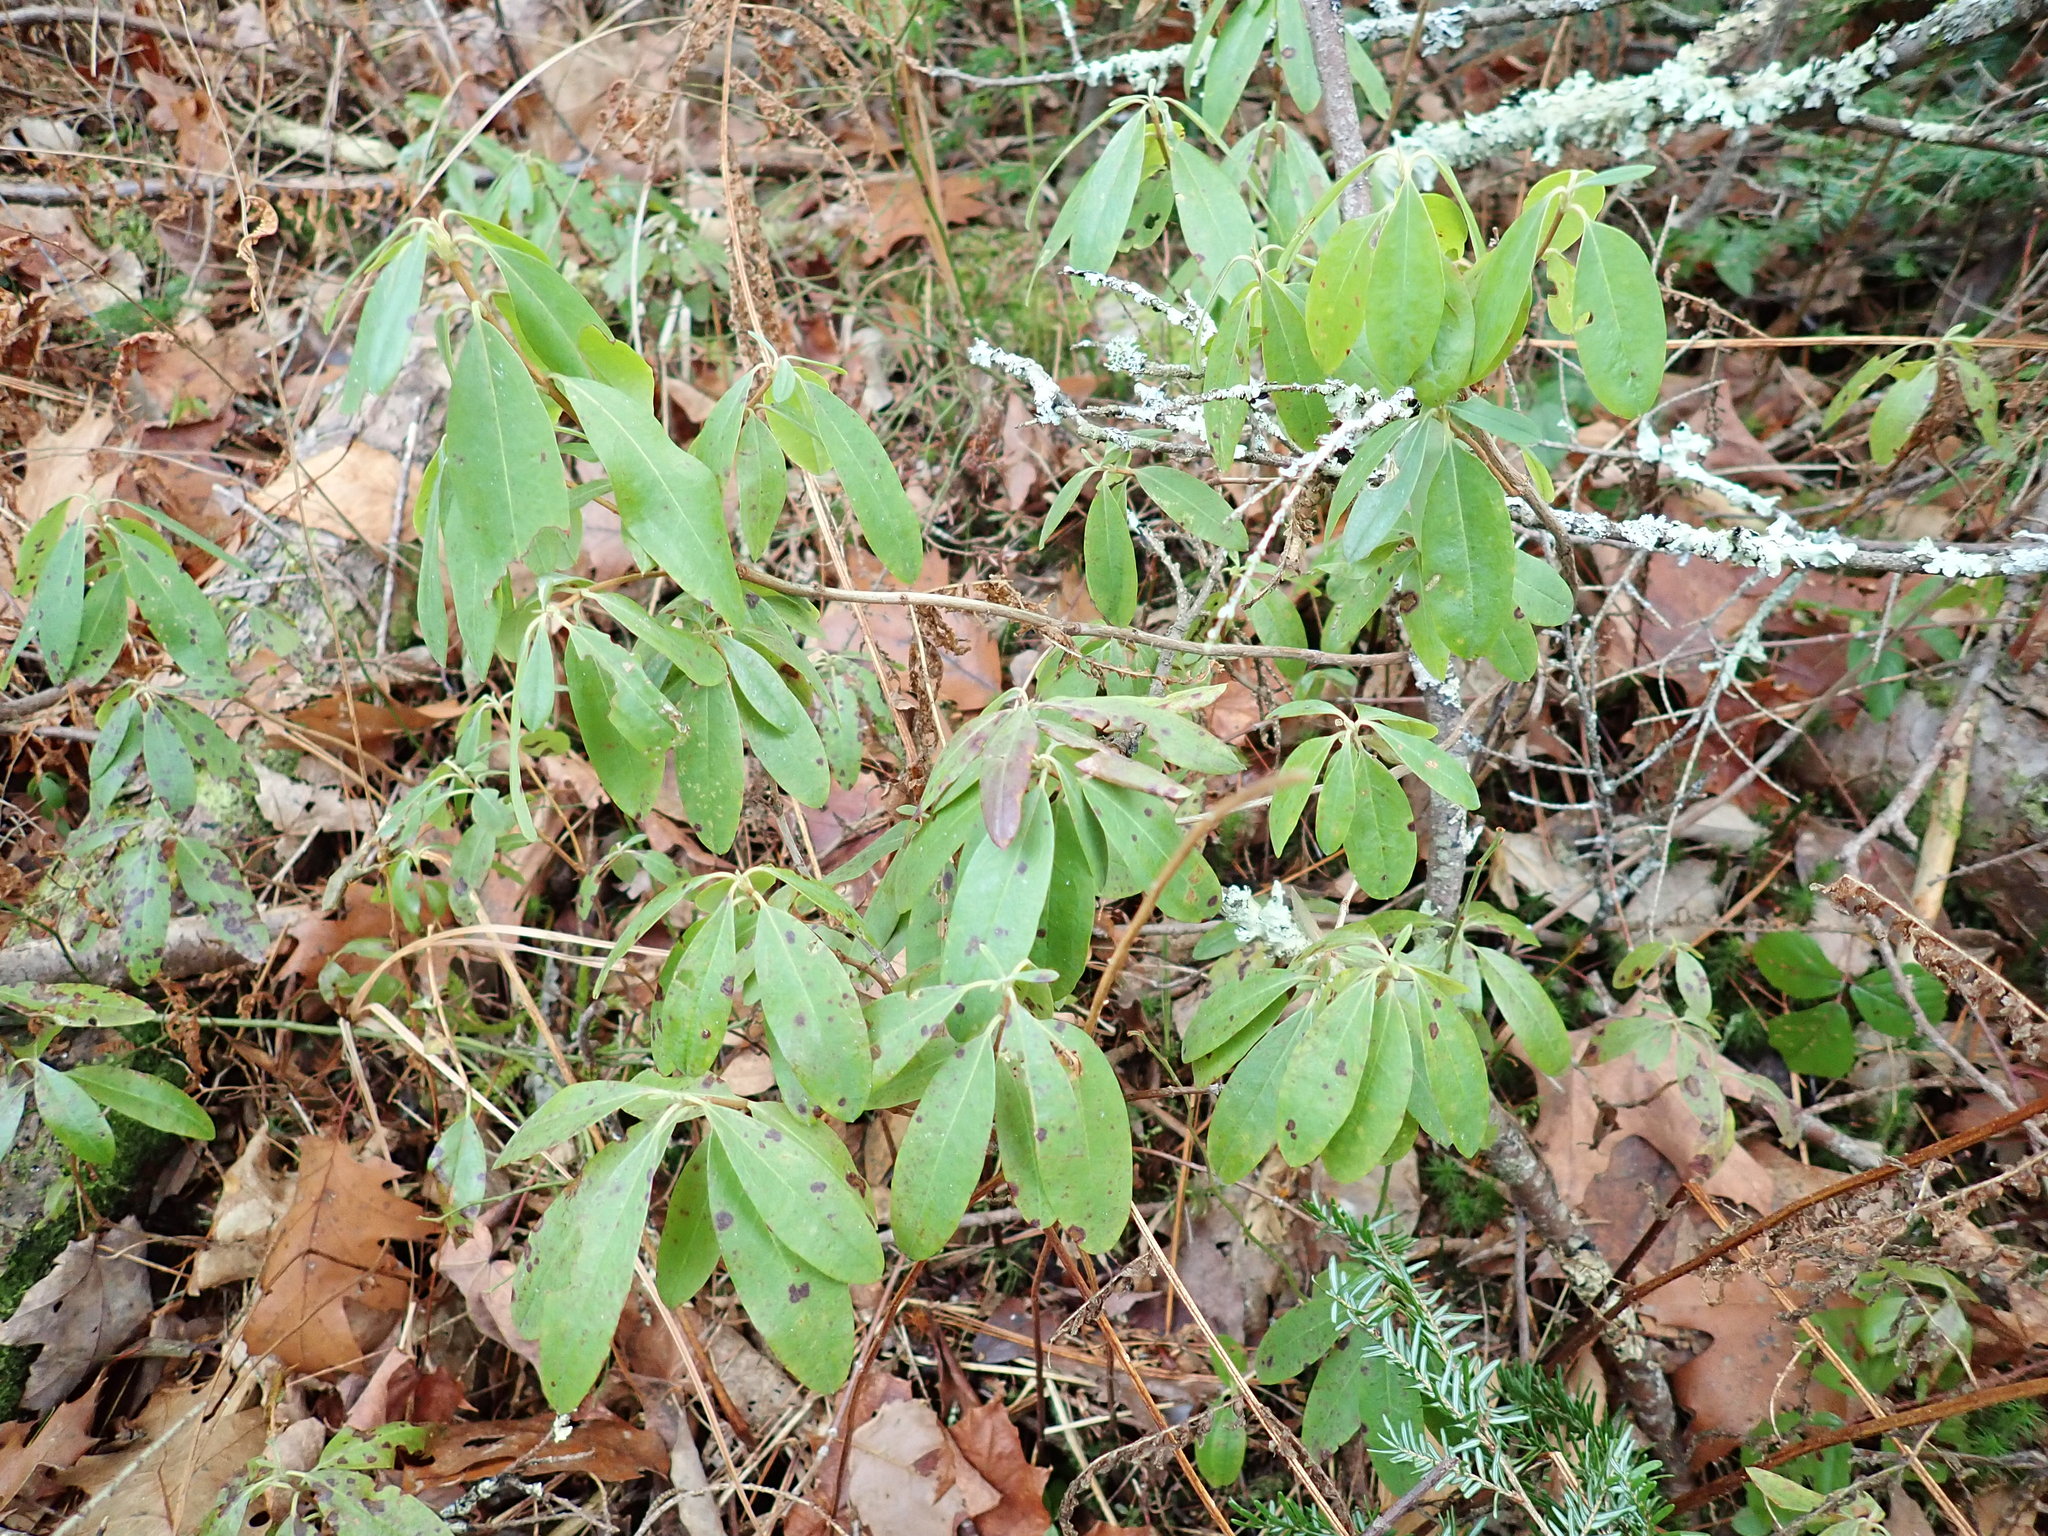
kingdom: Plantae
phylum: Tracheophyta
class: Magnoliopsida
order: Ericales
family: Ericaceae
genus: Kalmia
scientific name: Kalmia angustifolia
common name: Sheep-laurel
